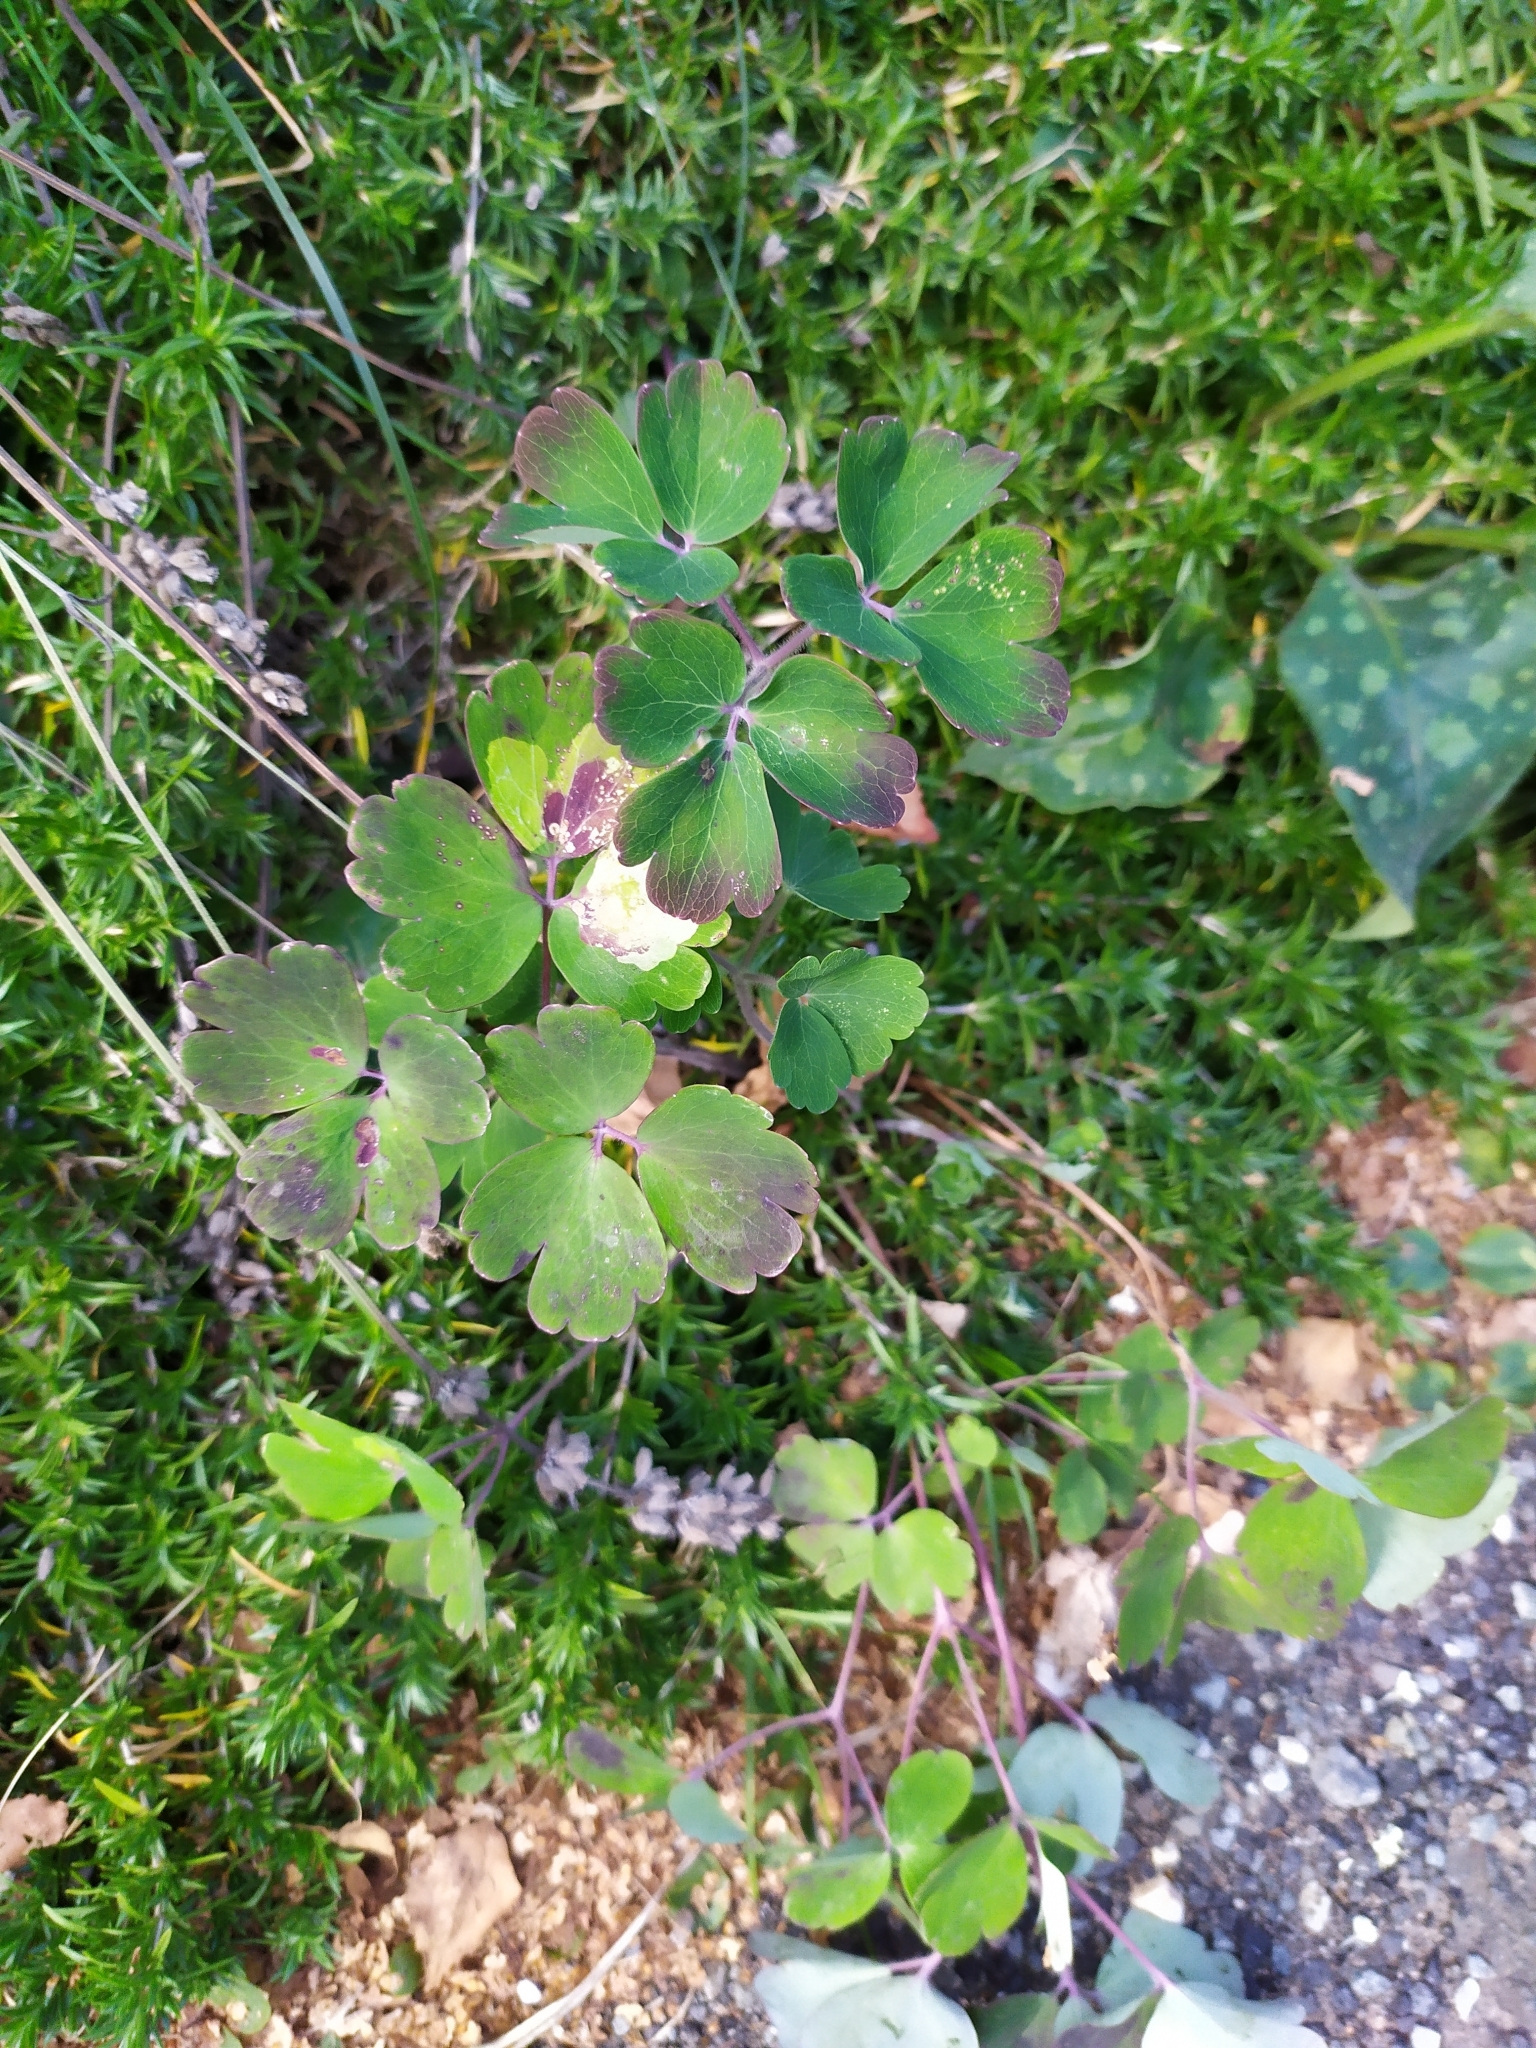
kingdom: Plantae
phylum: Tracheophyta
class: Magnoliopsida
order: Ranunculales
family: Ranunculaceae
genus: Aquilegia
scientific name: Aquilegia vulgaris
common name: Columbine
